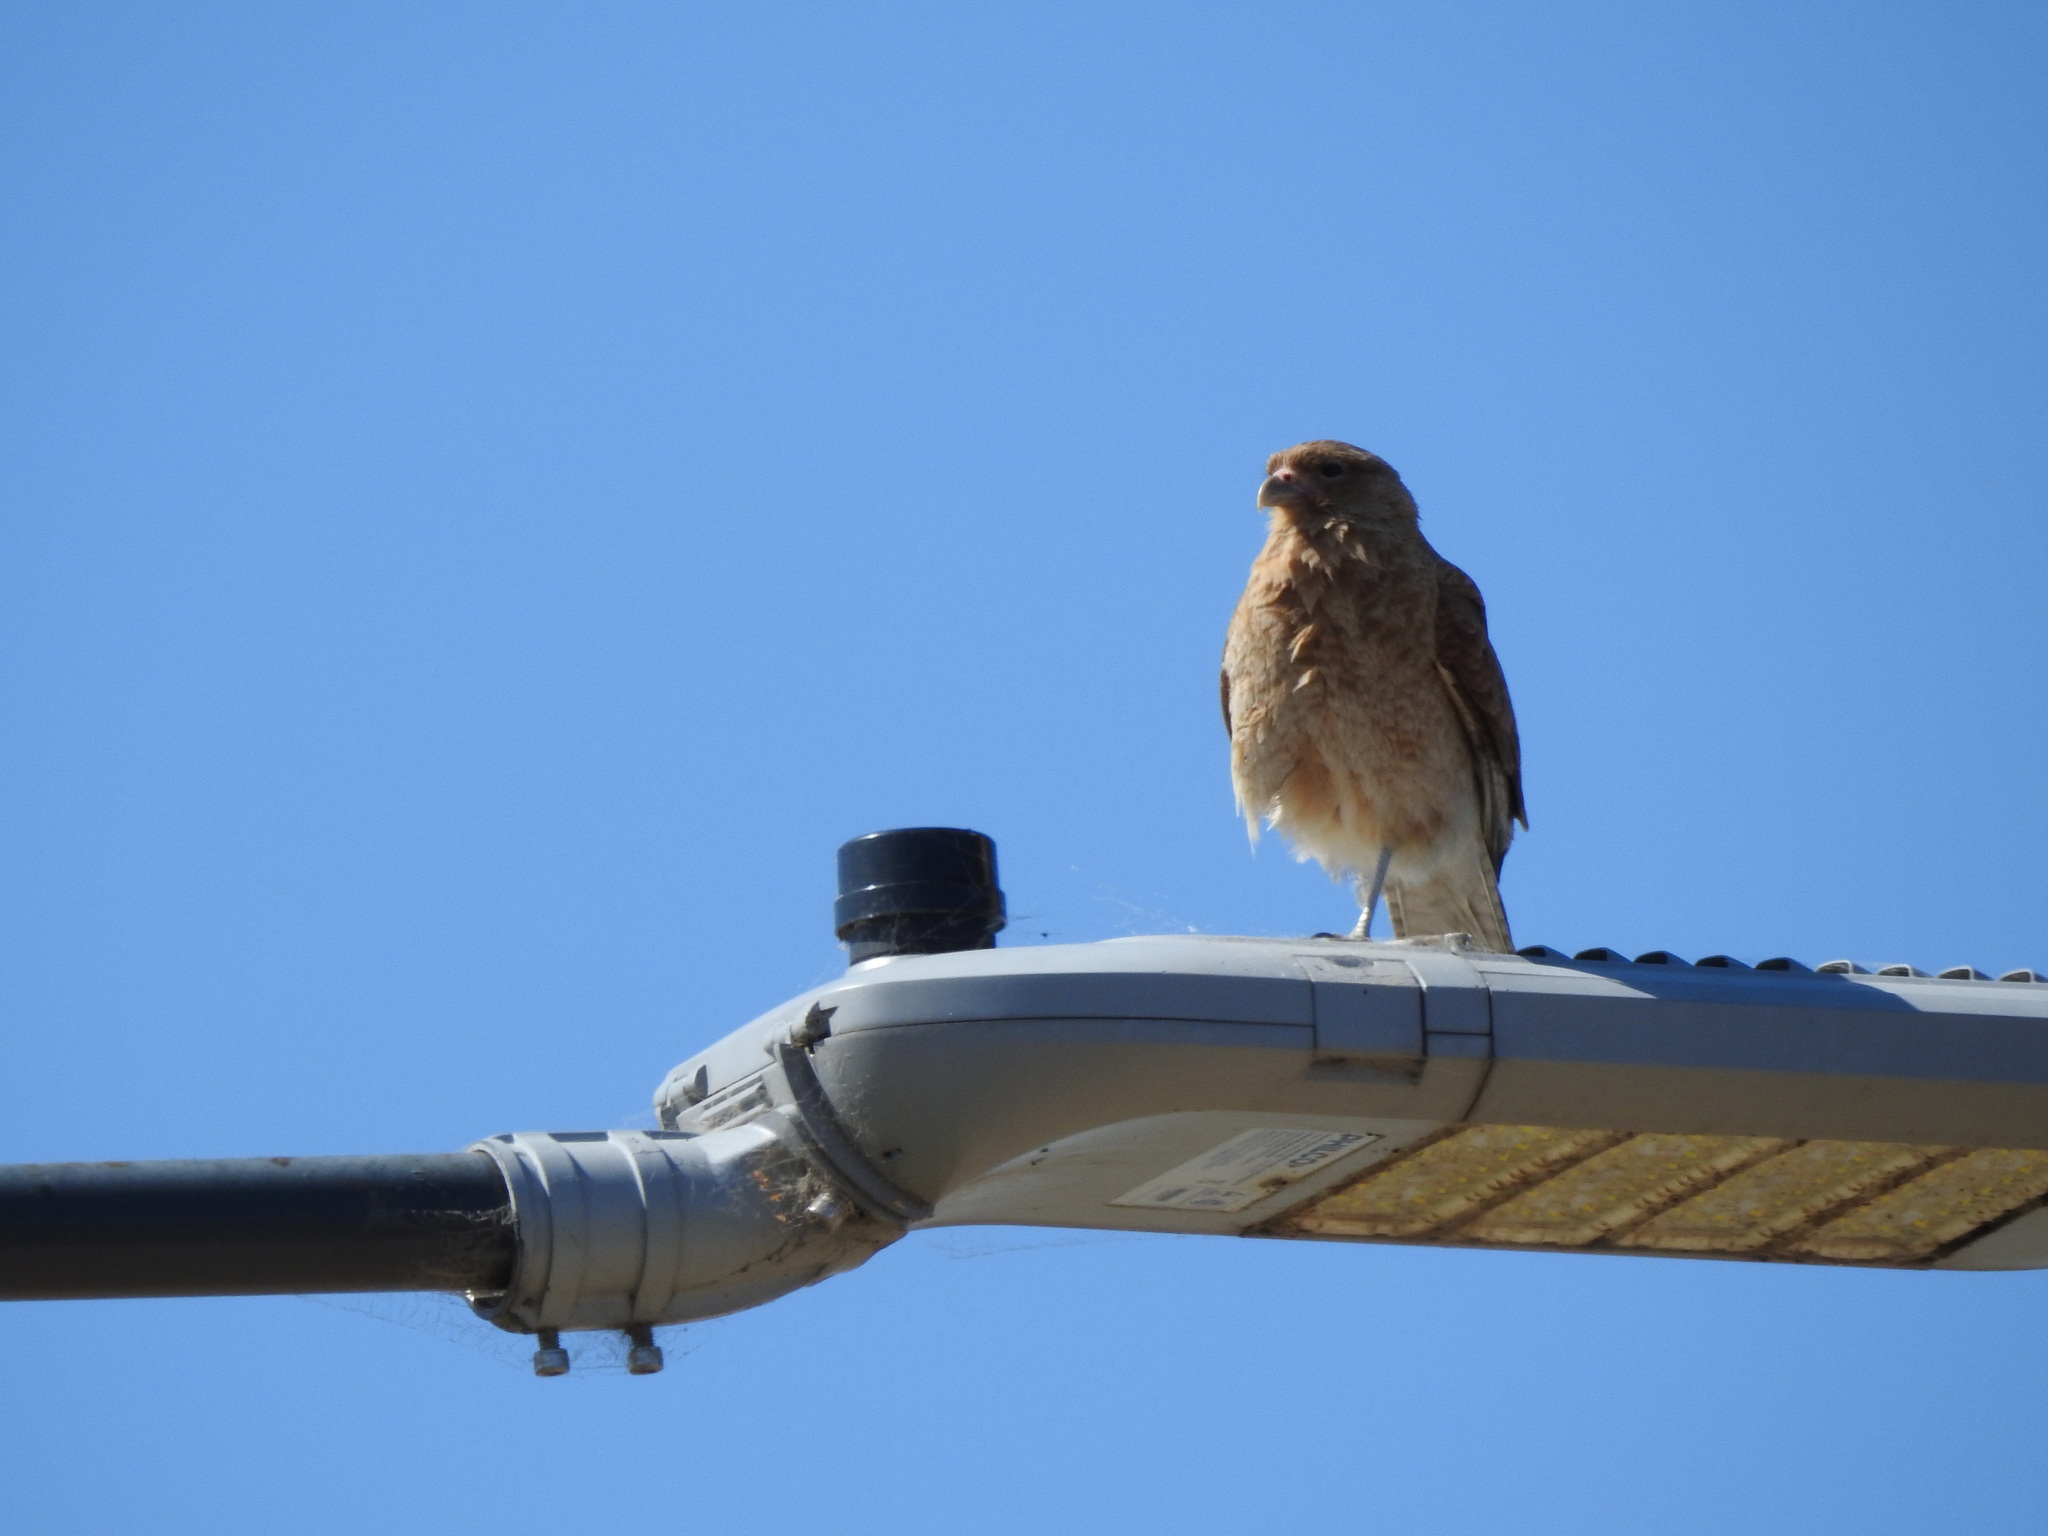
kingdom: Animalia
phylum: Chordata
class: Aves
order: Falconiformes
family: Falconidae
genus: Daptrius
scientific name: Daptrius
